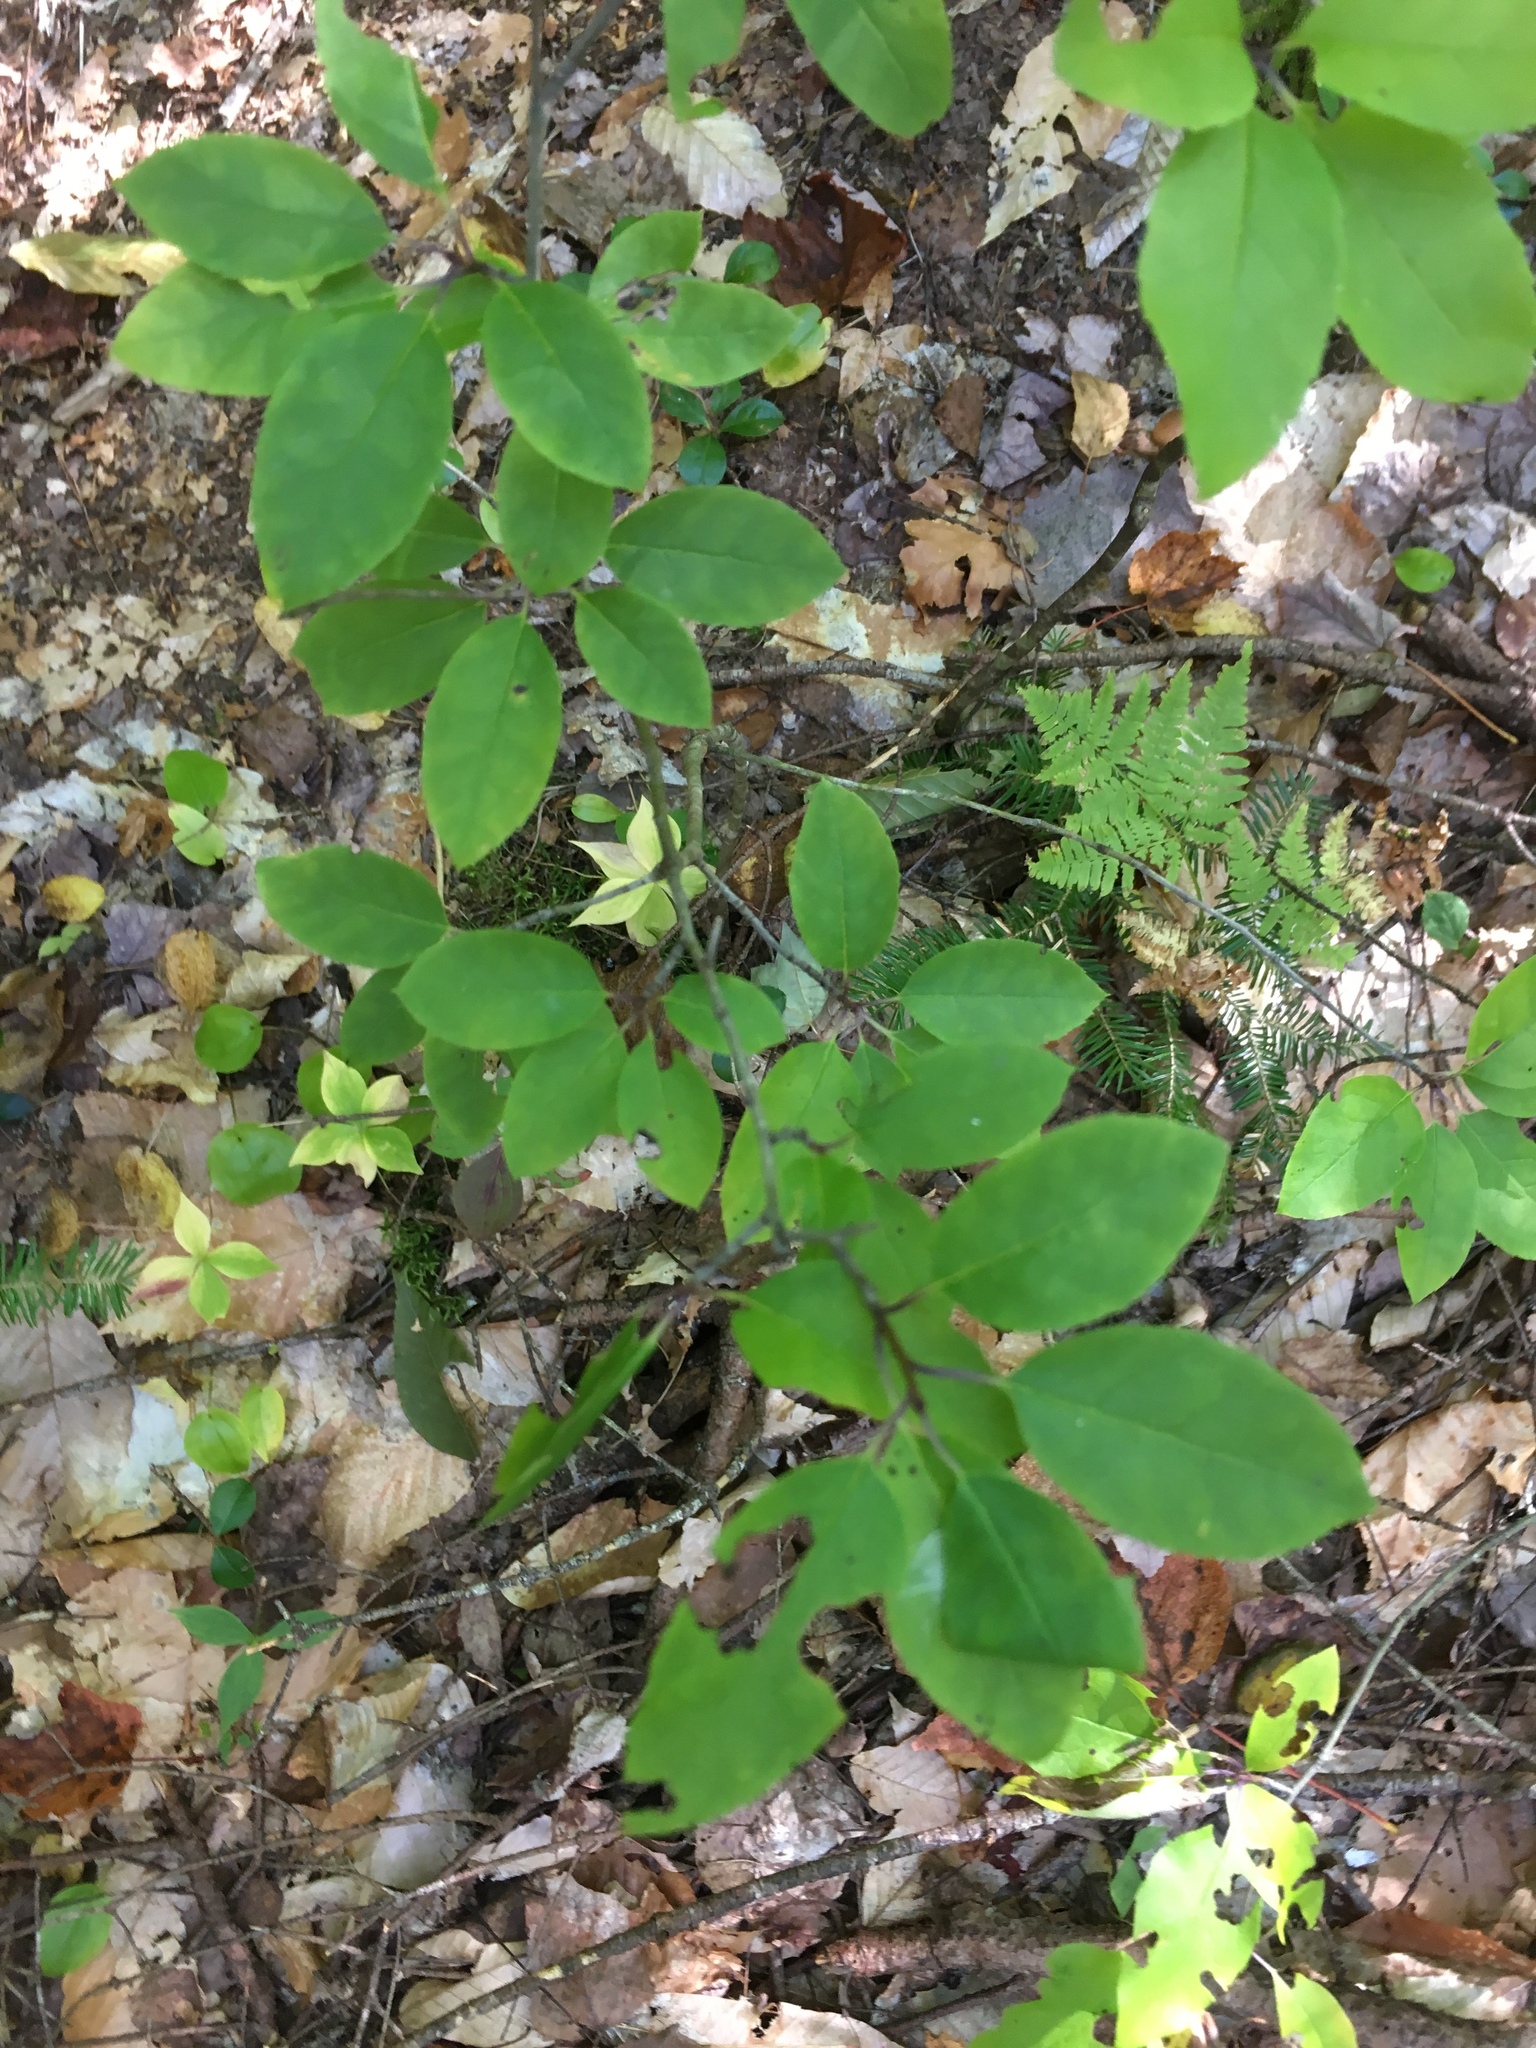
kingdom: Plantae
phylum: Tracheophyta
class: Magnoliopsida
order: Aquifoliales
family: Aquifoliaceae
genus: Ilex
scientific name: Ilex mucronata
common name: Catberry
